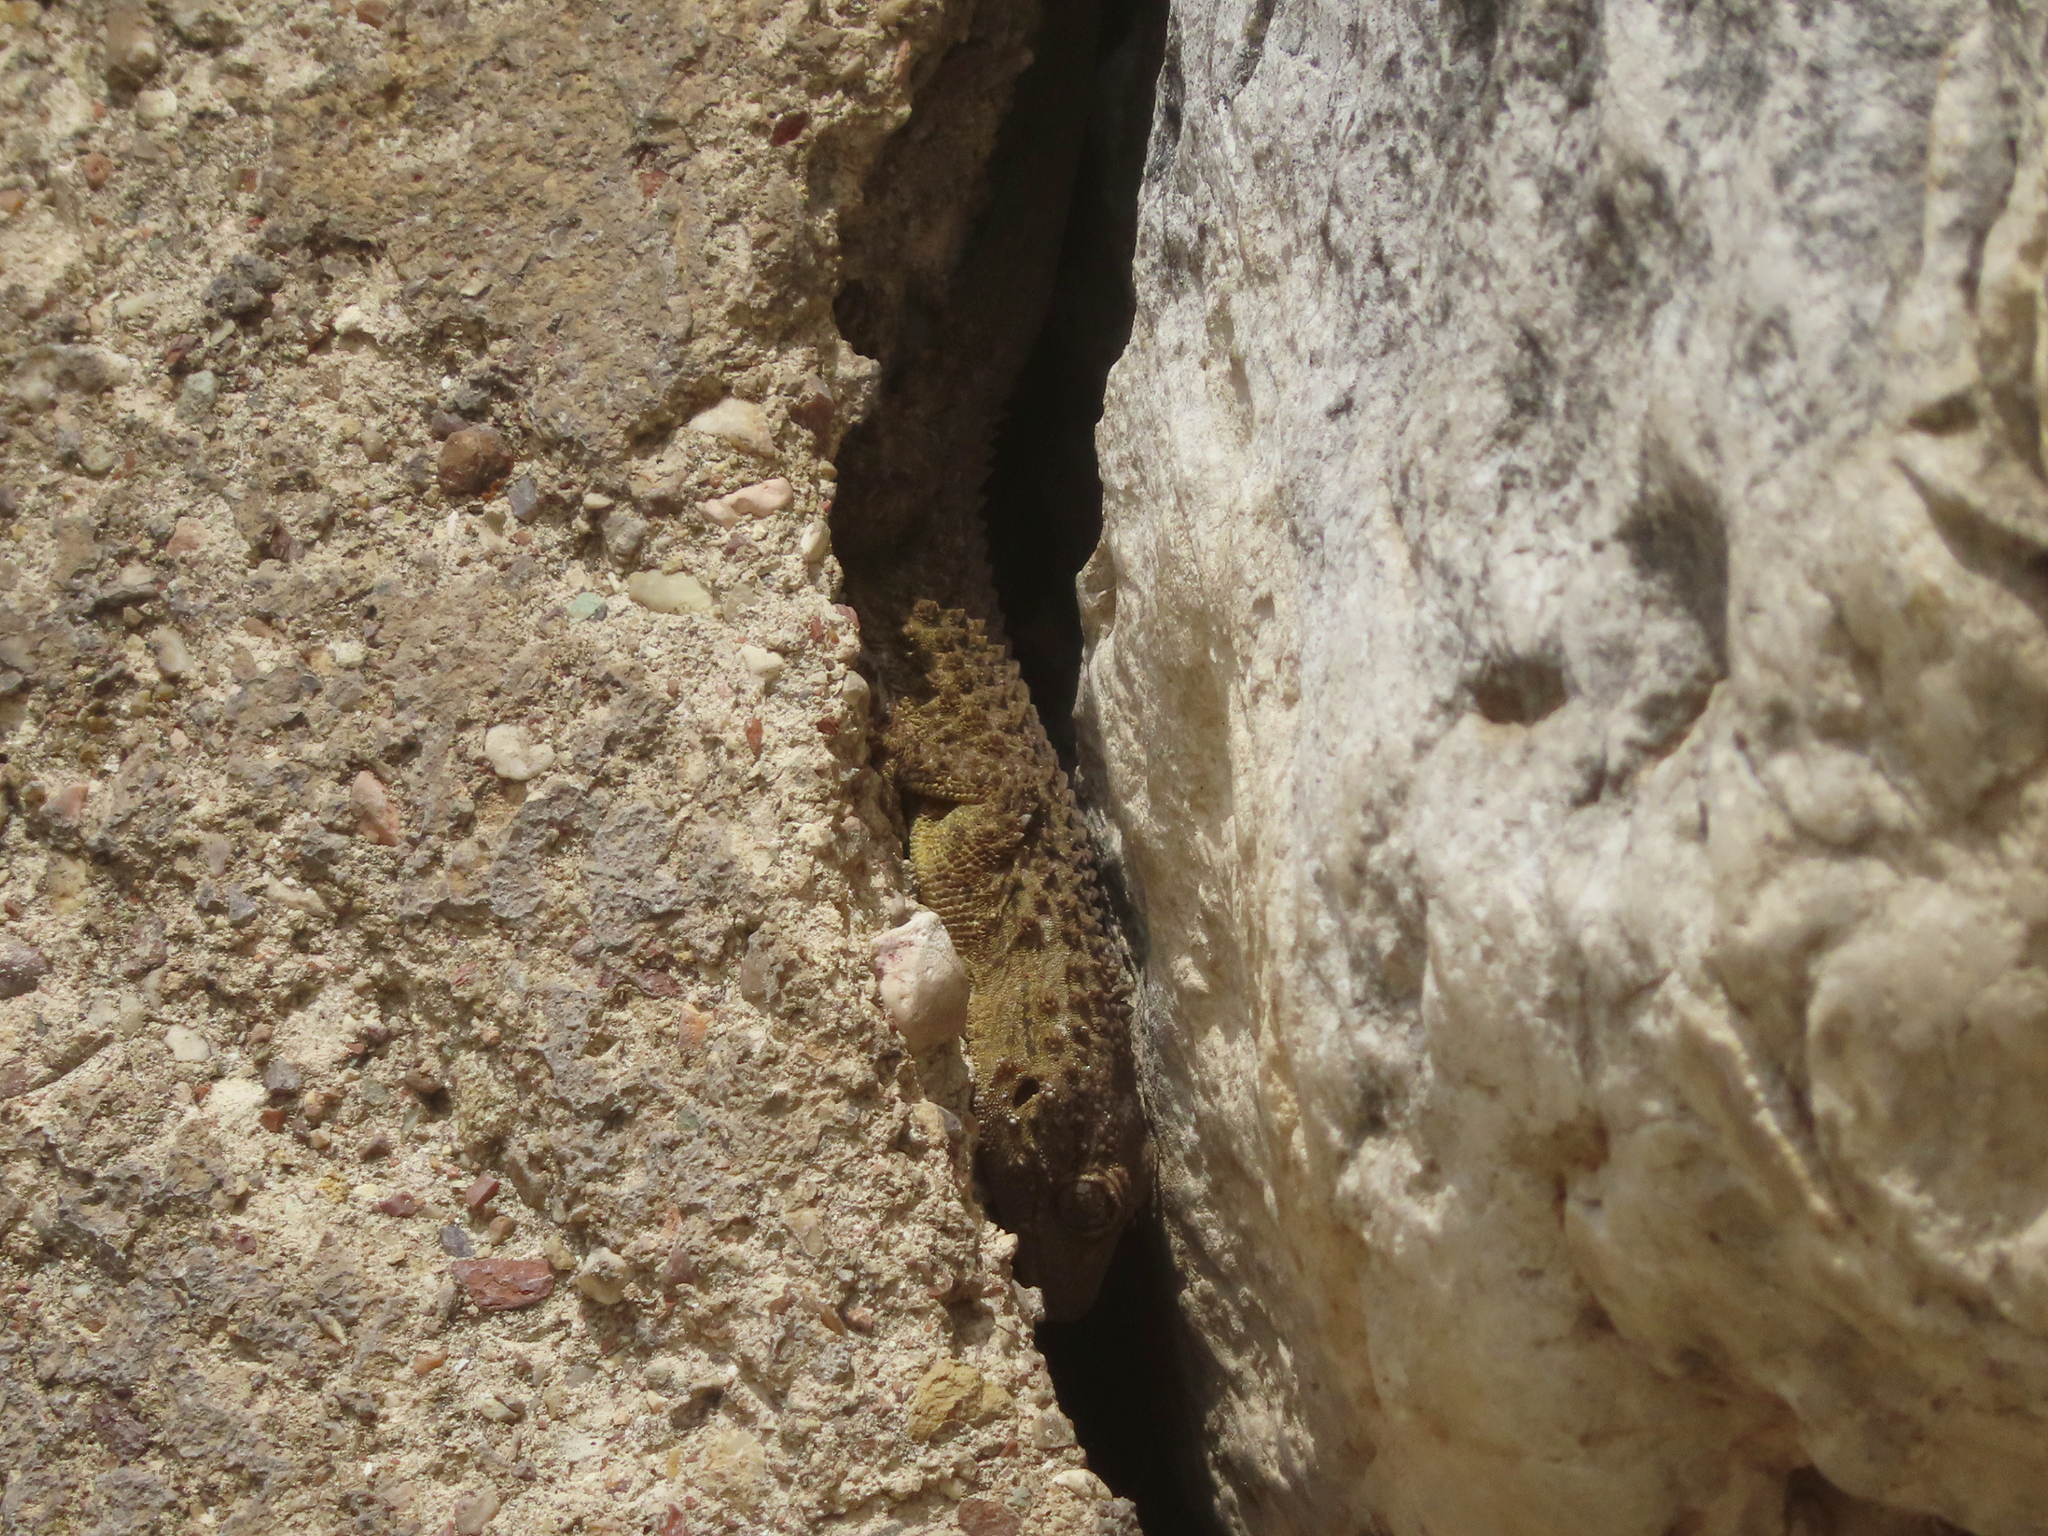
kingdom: Animalia
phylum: Chordata
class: Squamata
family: Phyllodactylidae
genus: Tarentola
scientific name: Tarentola mauritanica
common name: Moorish gecko
